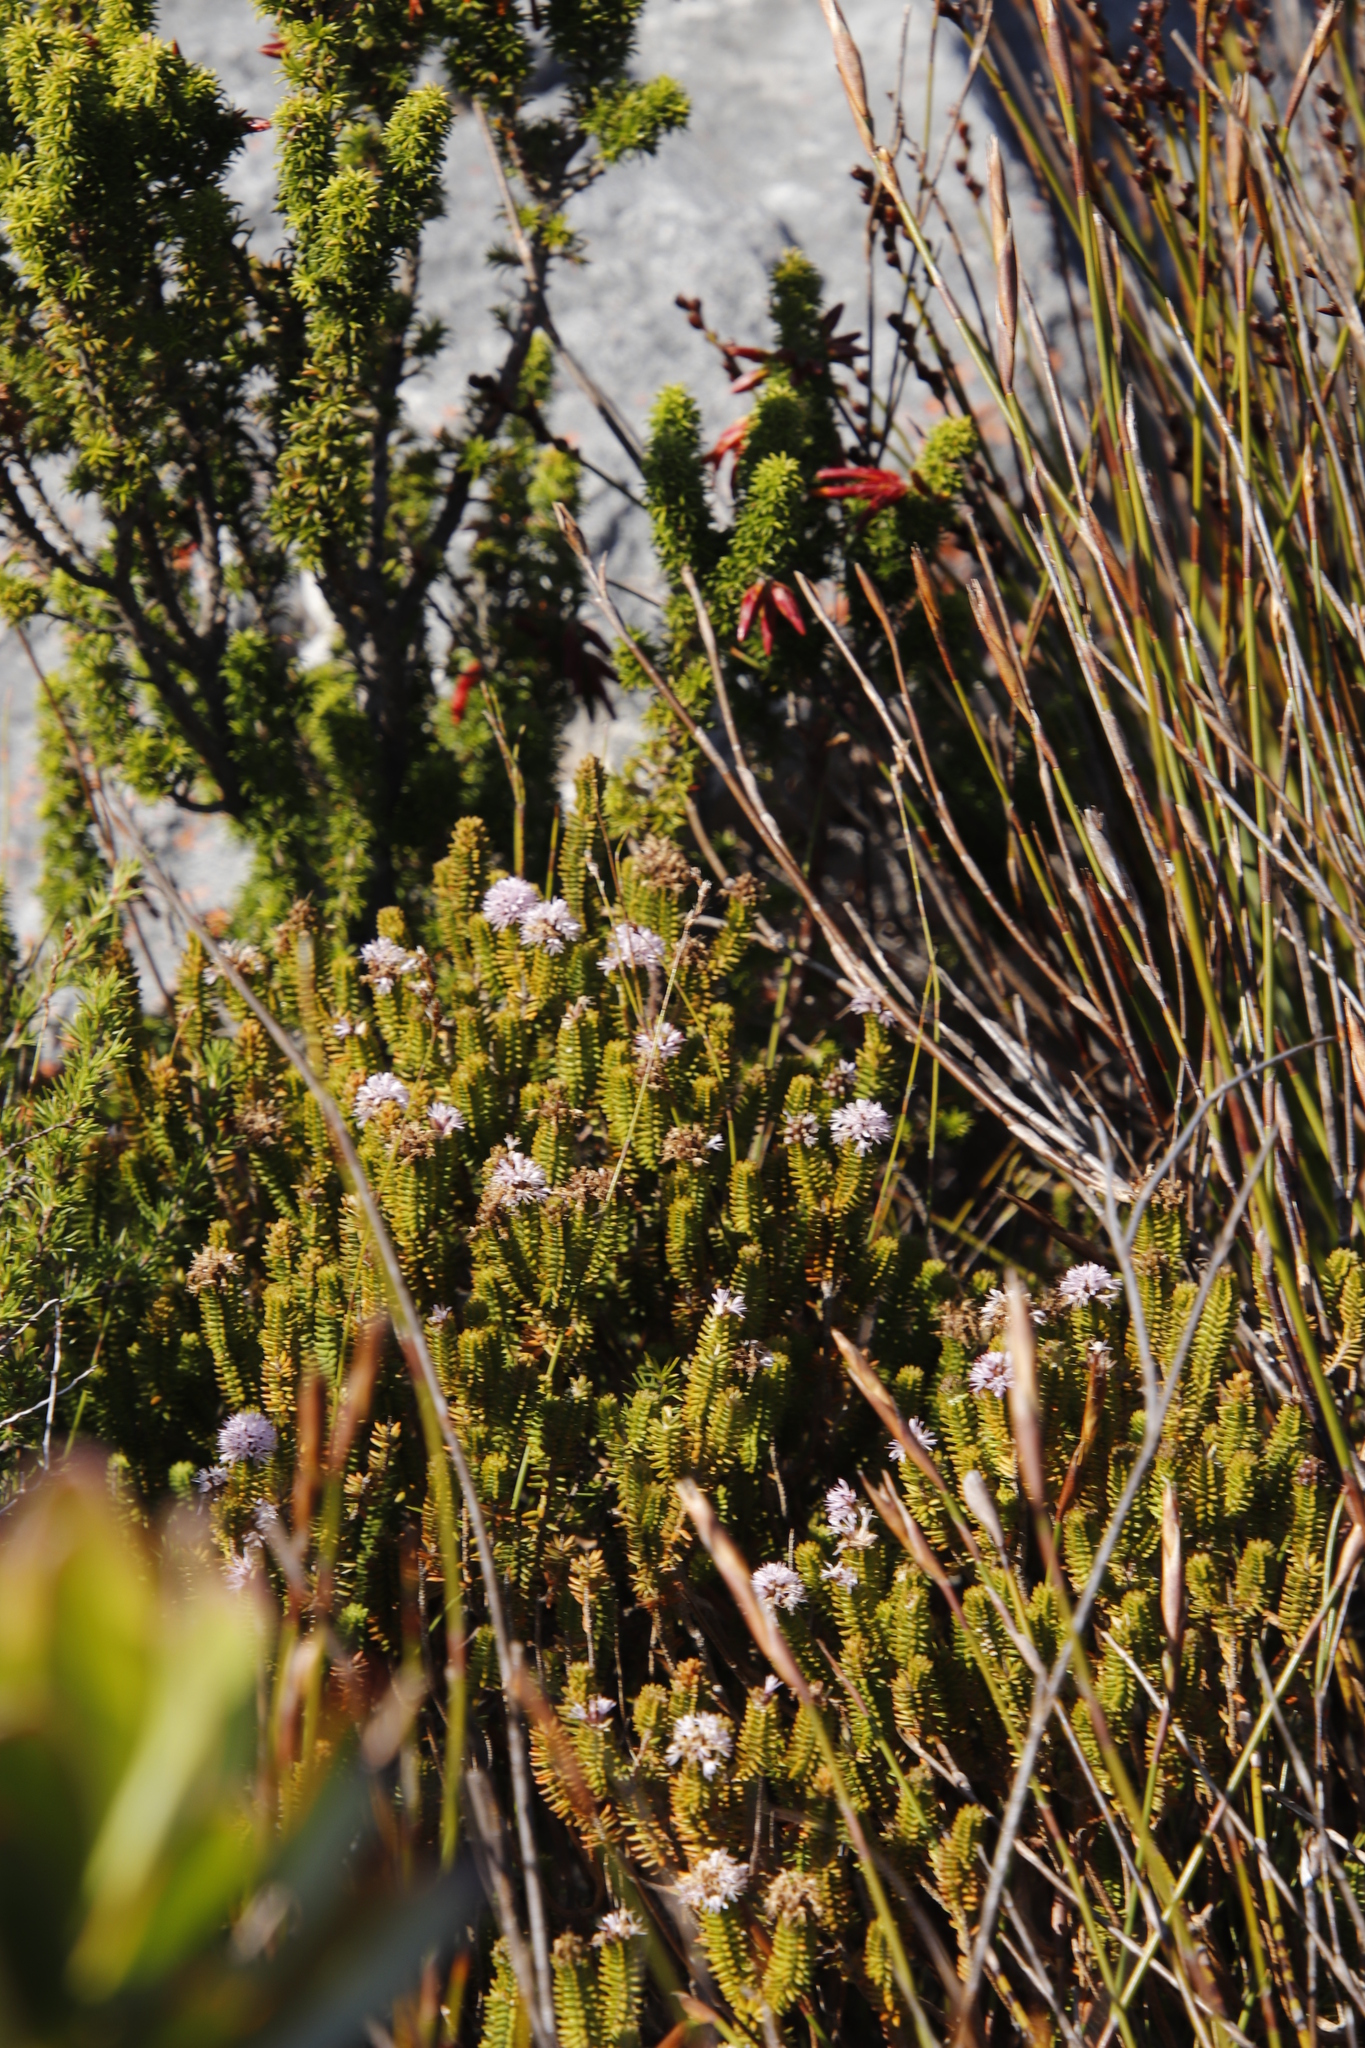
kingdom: Plantae
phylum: Tracheophyta
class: Magnoliopsida
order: Lamiales
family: Stilbaceae
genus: Stilbe
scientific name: Stilbe ericoides
